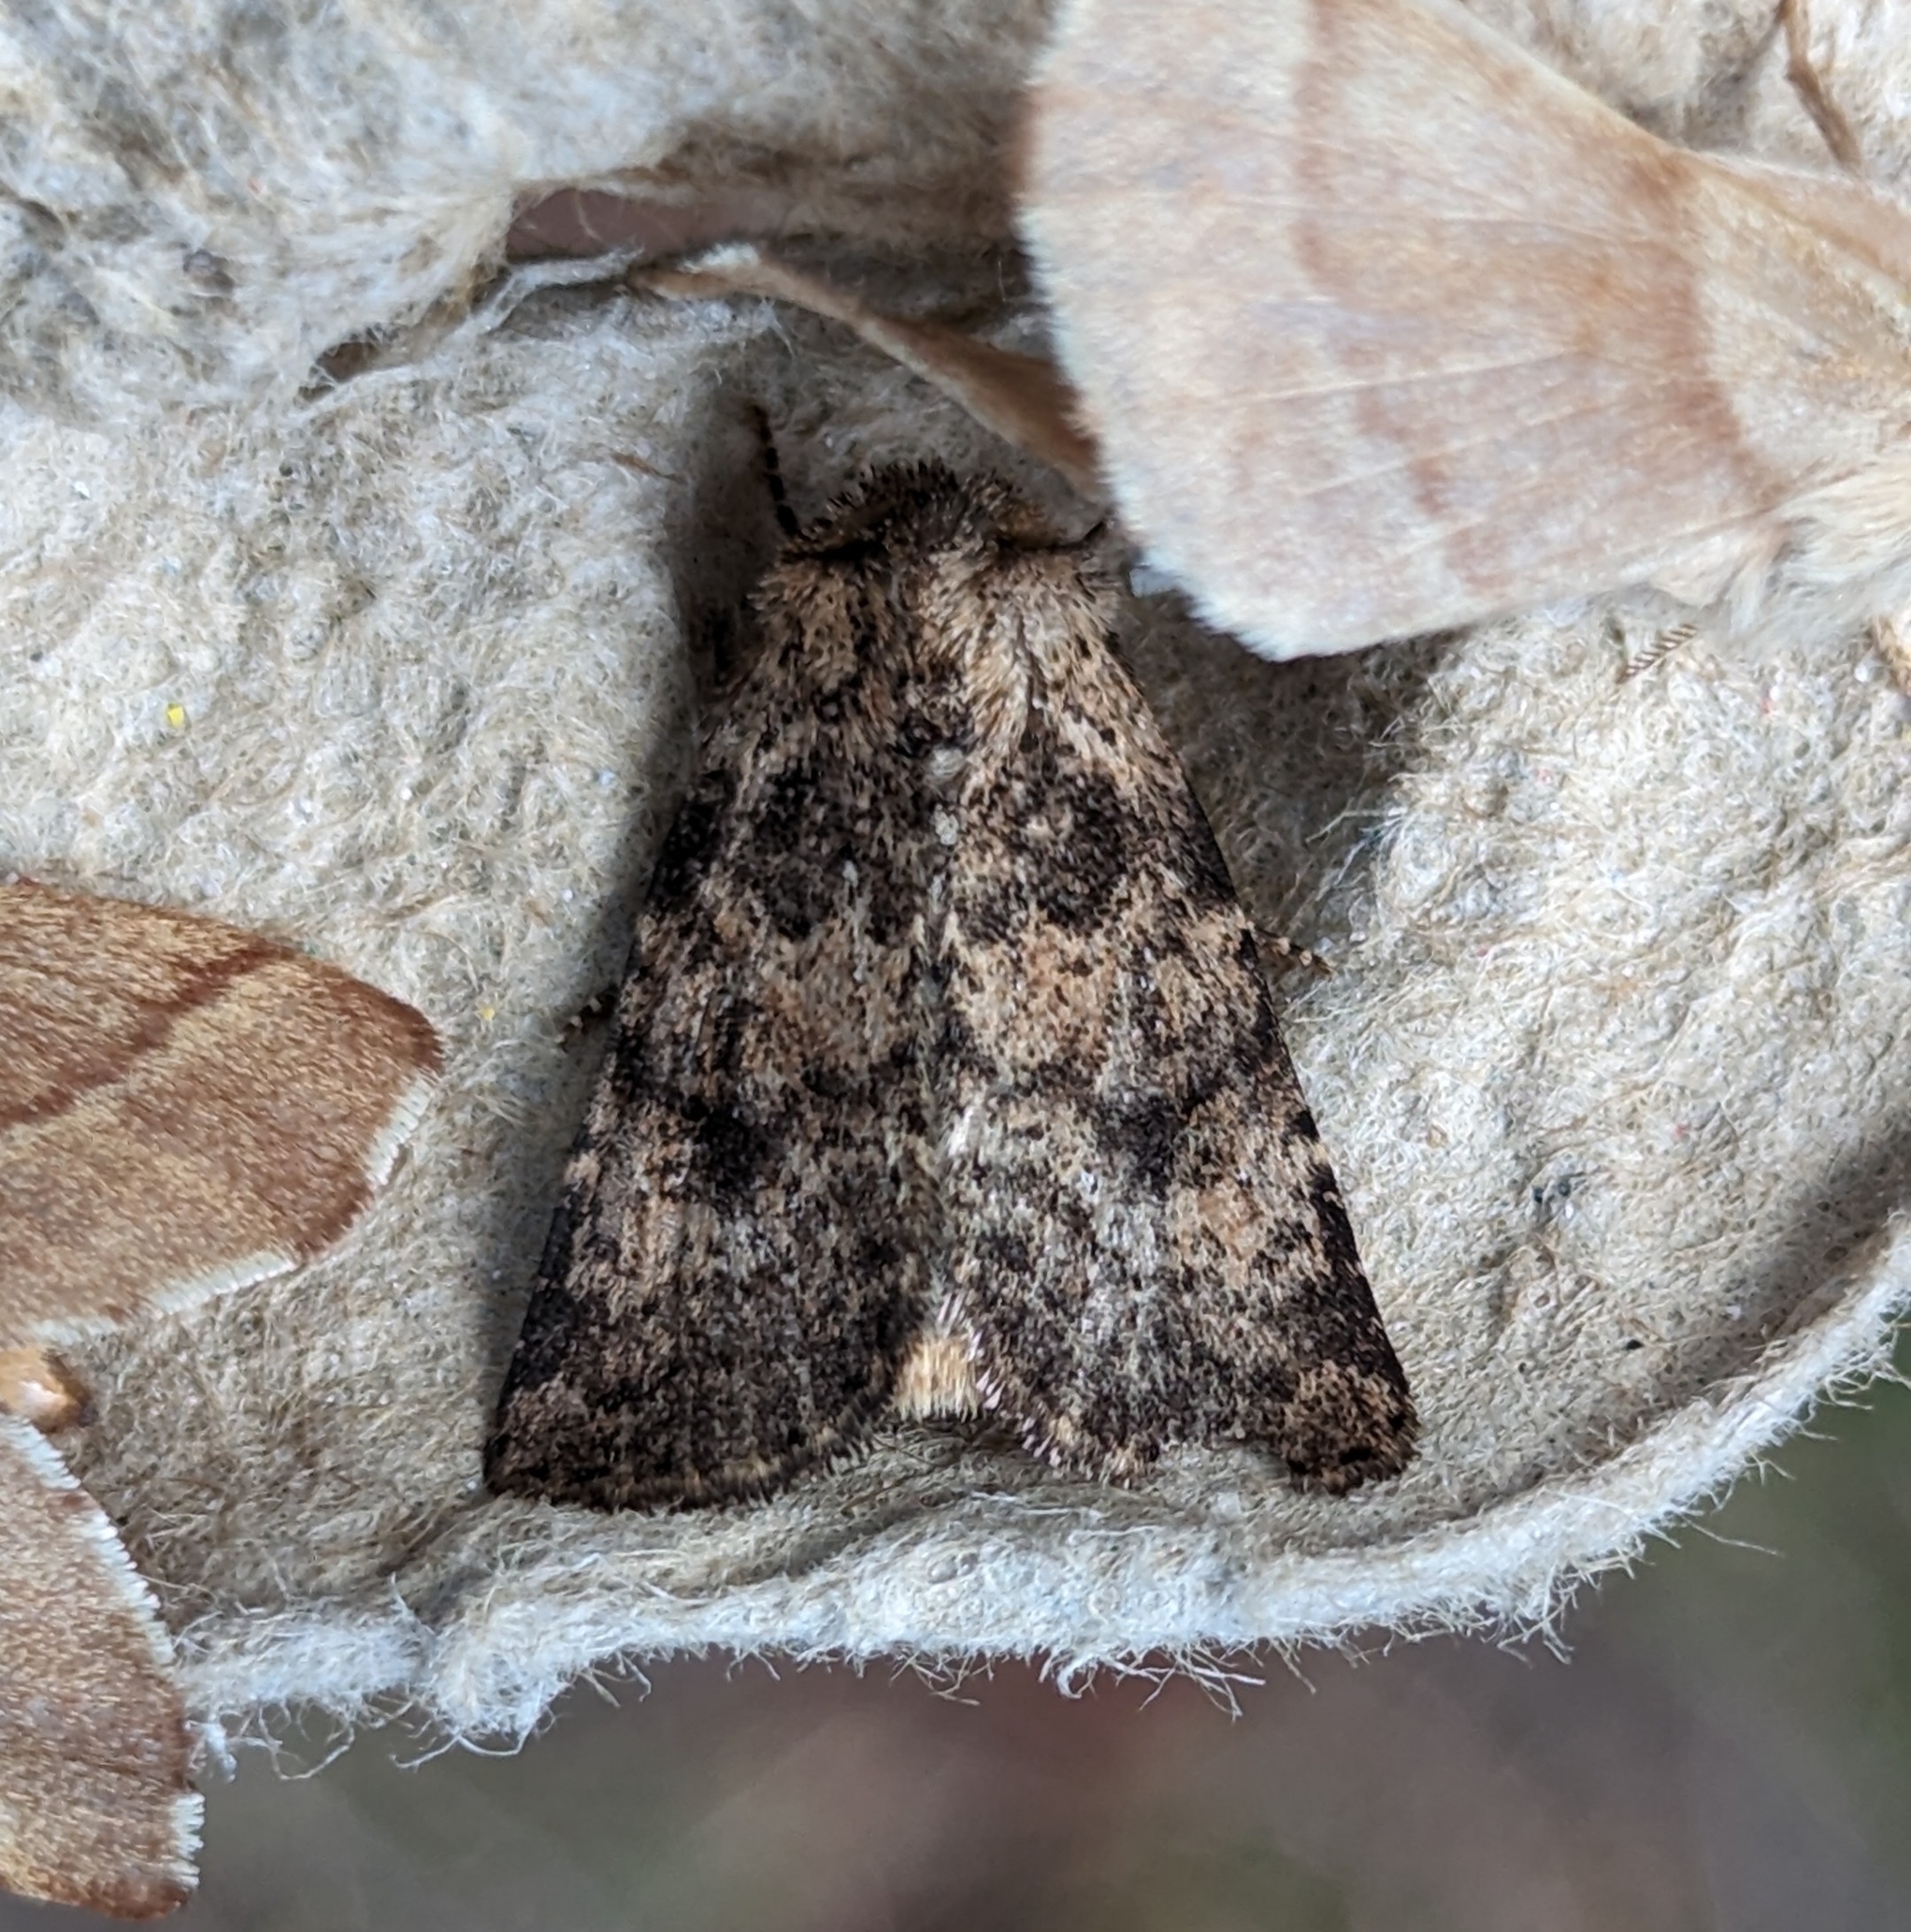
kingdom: Animalia
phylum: Arthropoda
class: Insecta
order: Lepidoptera
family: Noctuidae
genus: Homorthodes
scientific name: Homorthodes hanhami
